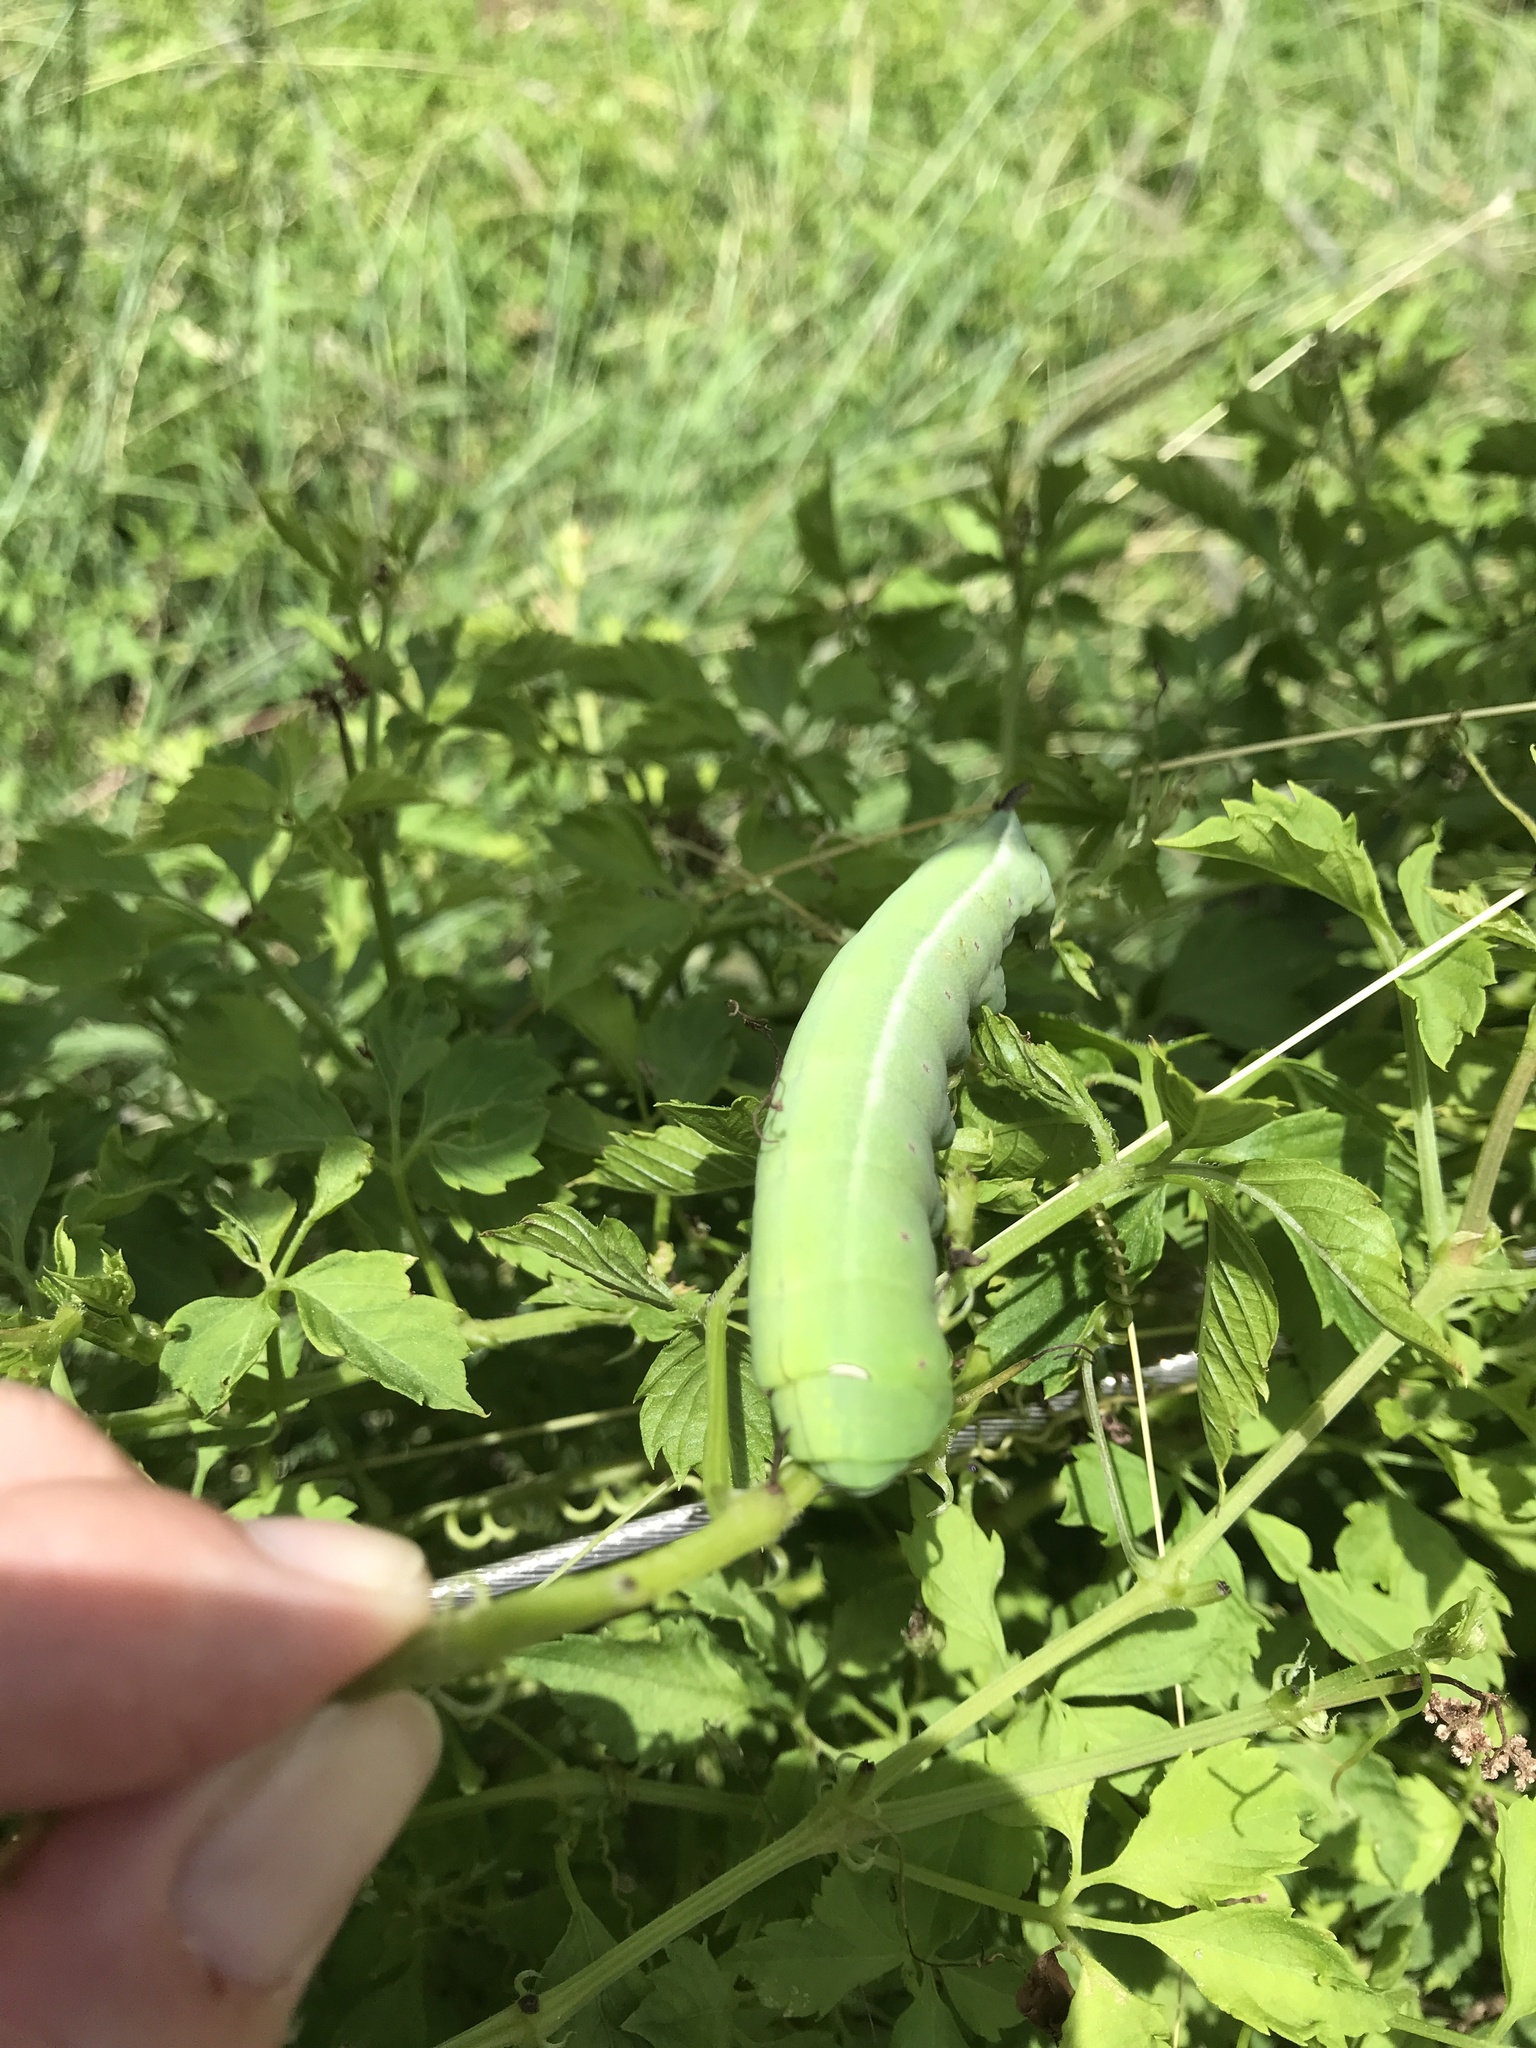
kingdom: Animalia
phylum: Arthropoda
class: Insecta
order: Lepidoptera
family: Sphingidae
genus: Theretra
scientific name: Theretra latreillii
